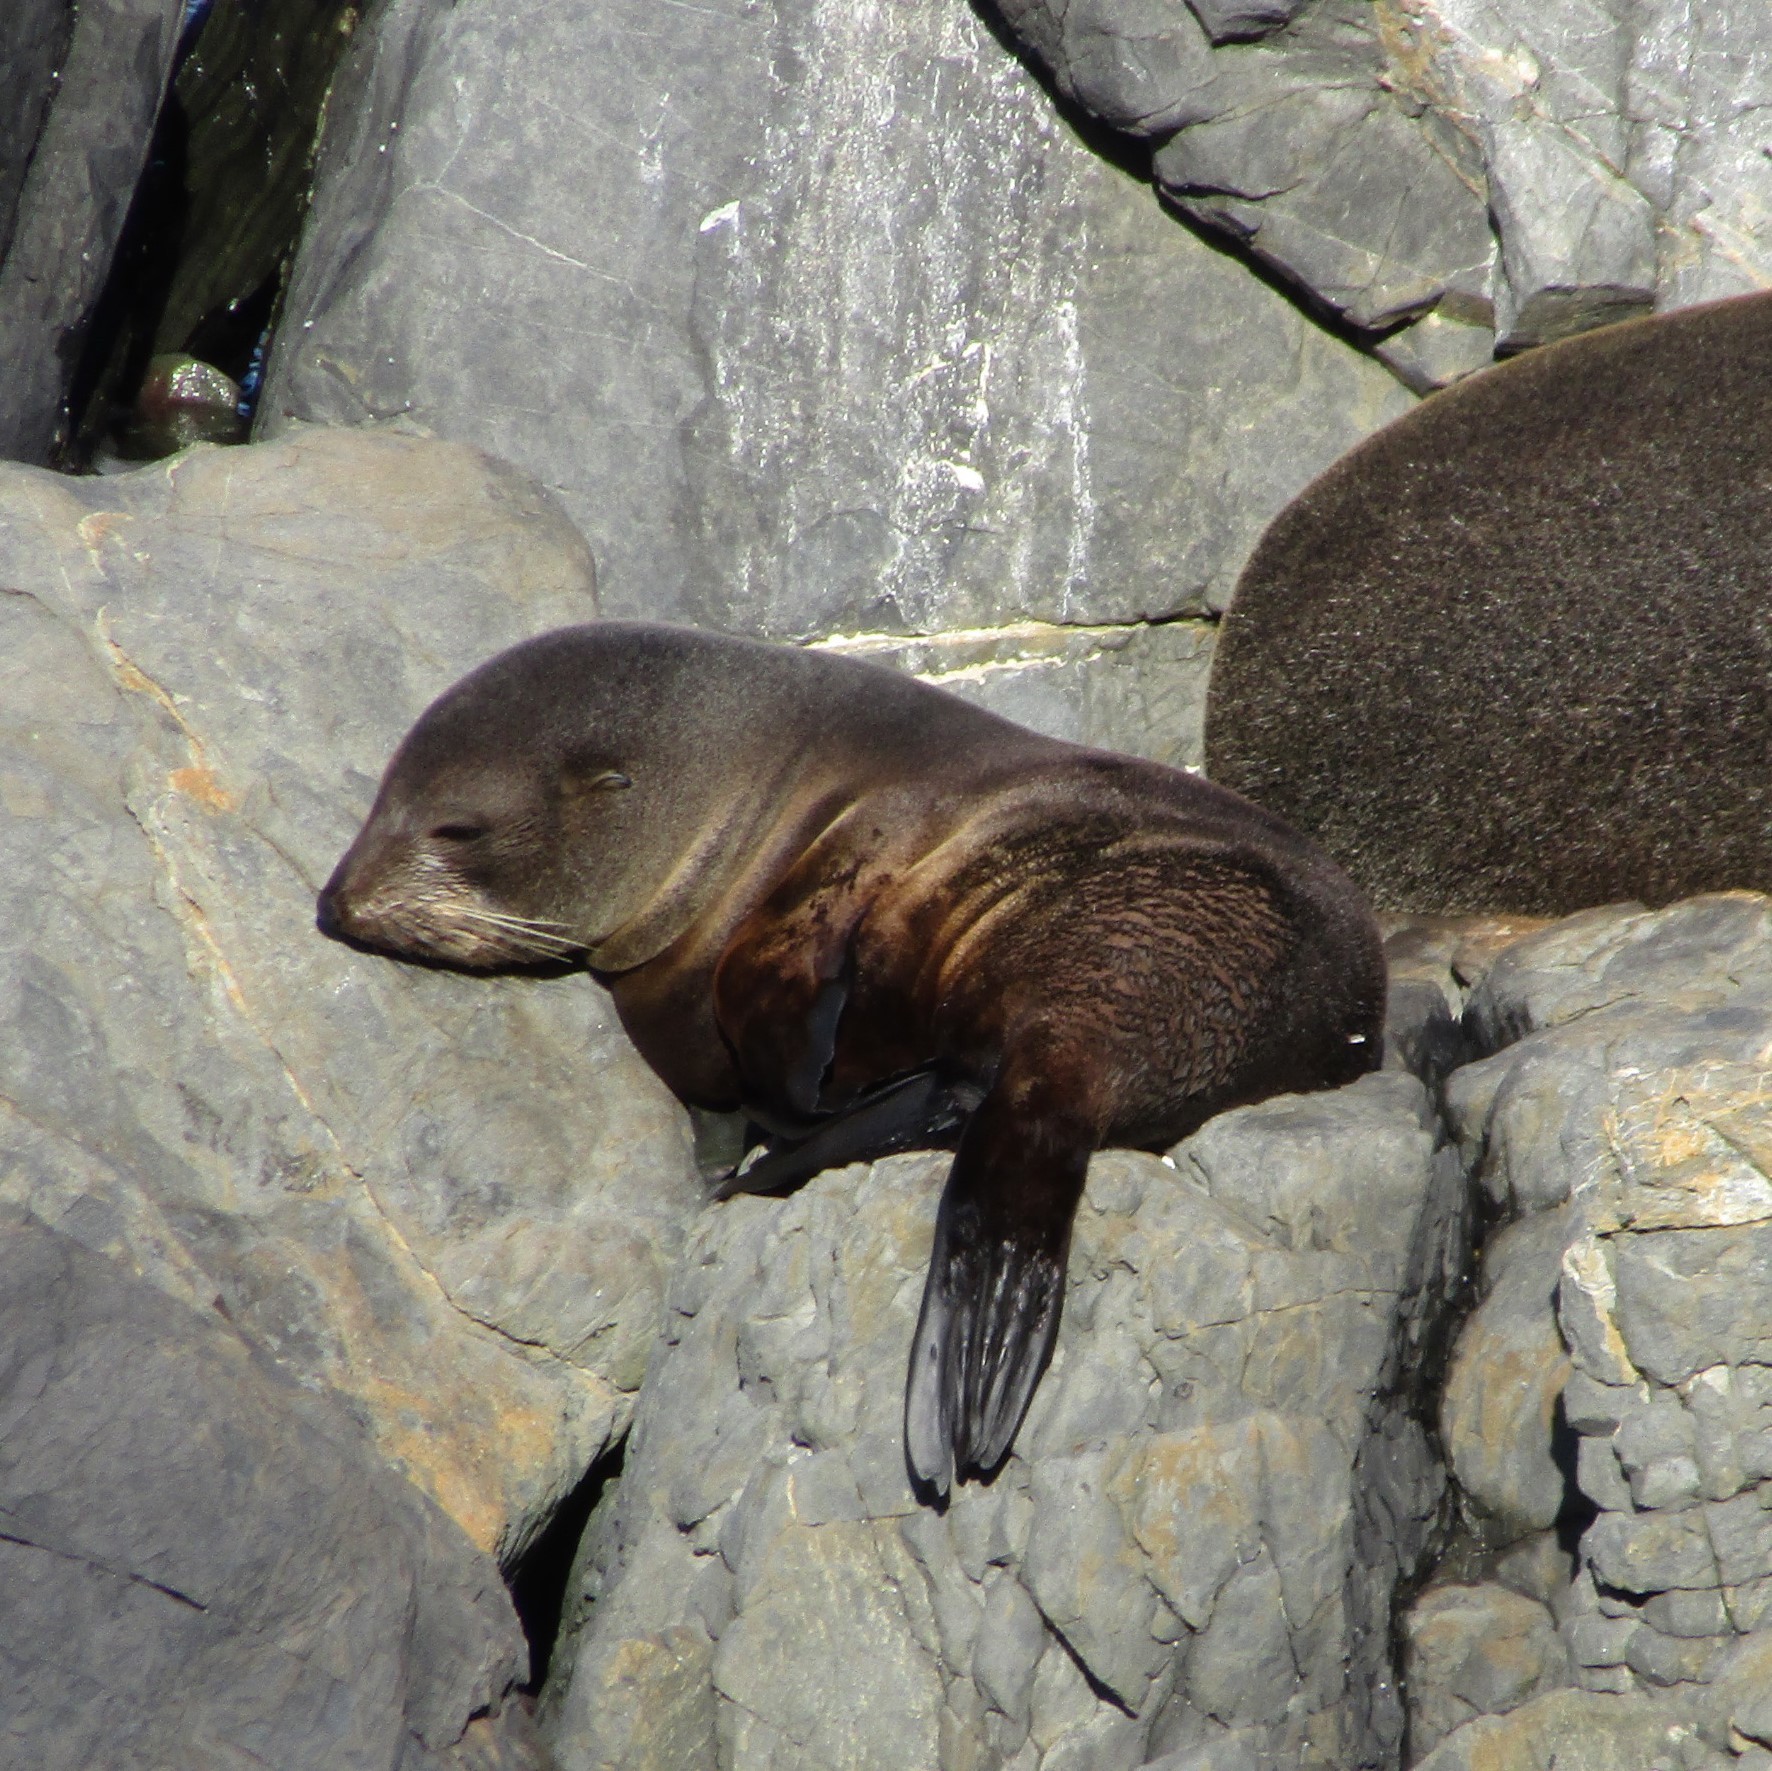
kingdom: Animalia
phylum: Chordata
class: Mammalia
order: Carnivora
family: Otariidae
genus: Arctocephalus
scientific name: Arctocephalus forsteri
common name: New zealand fur seal
